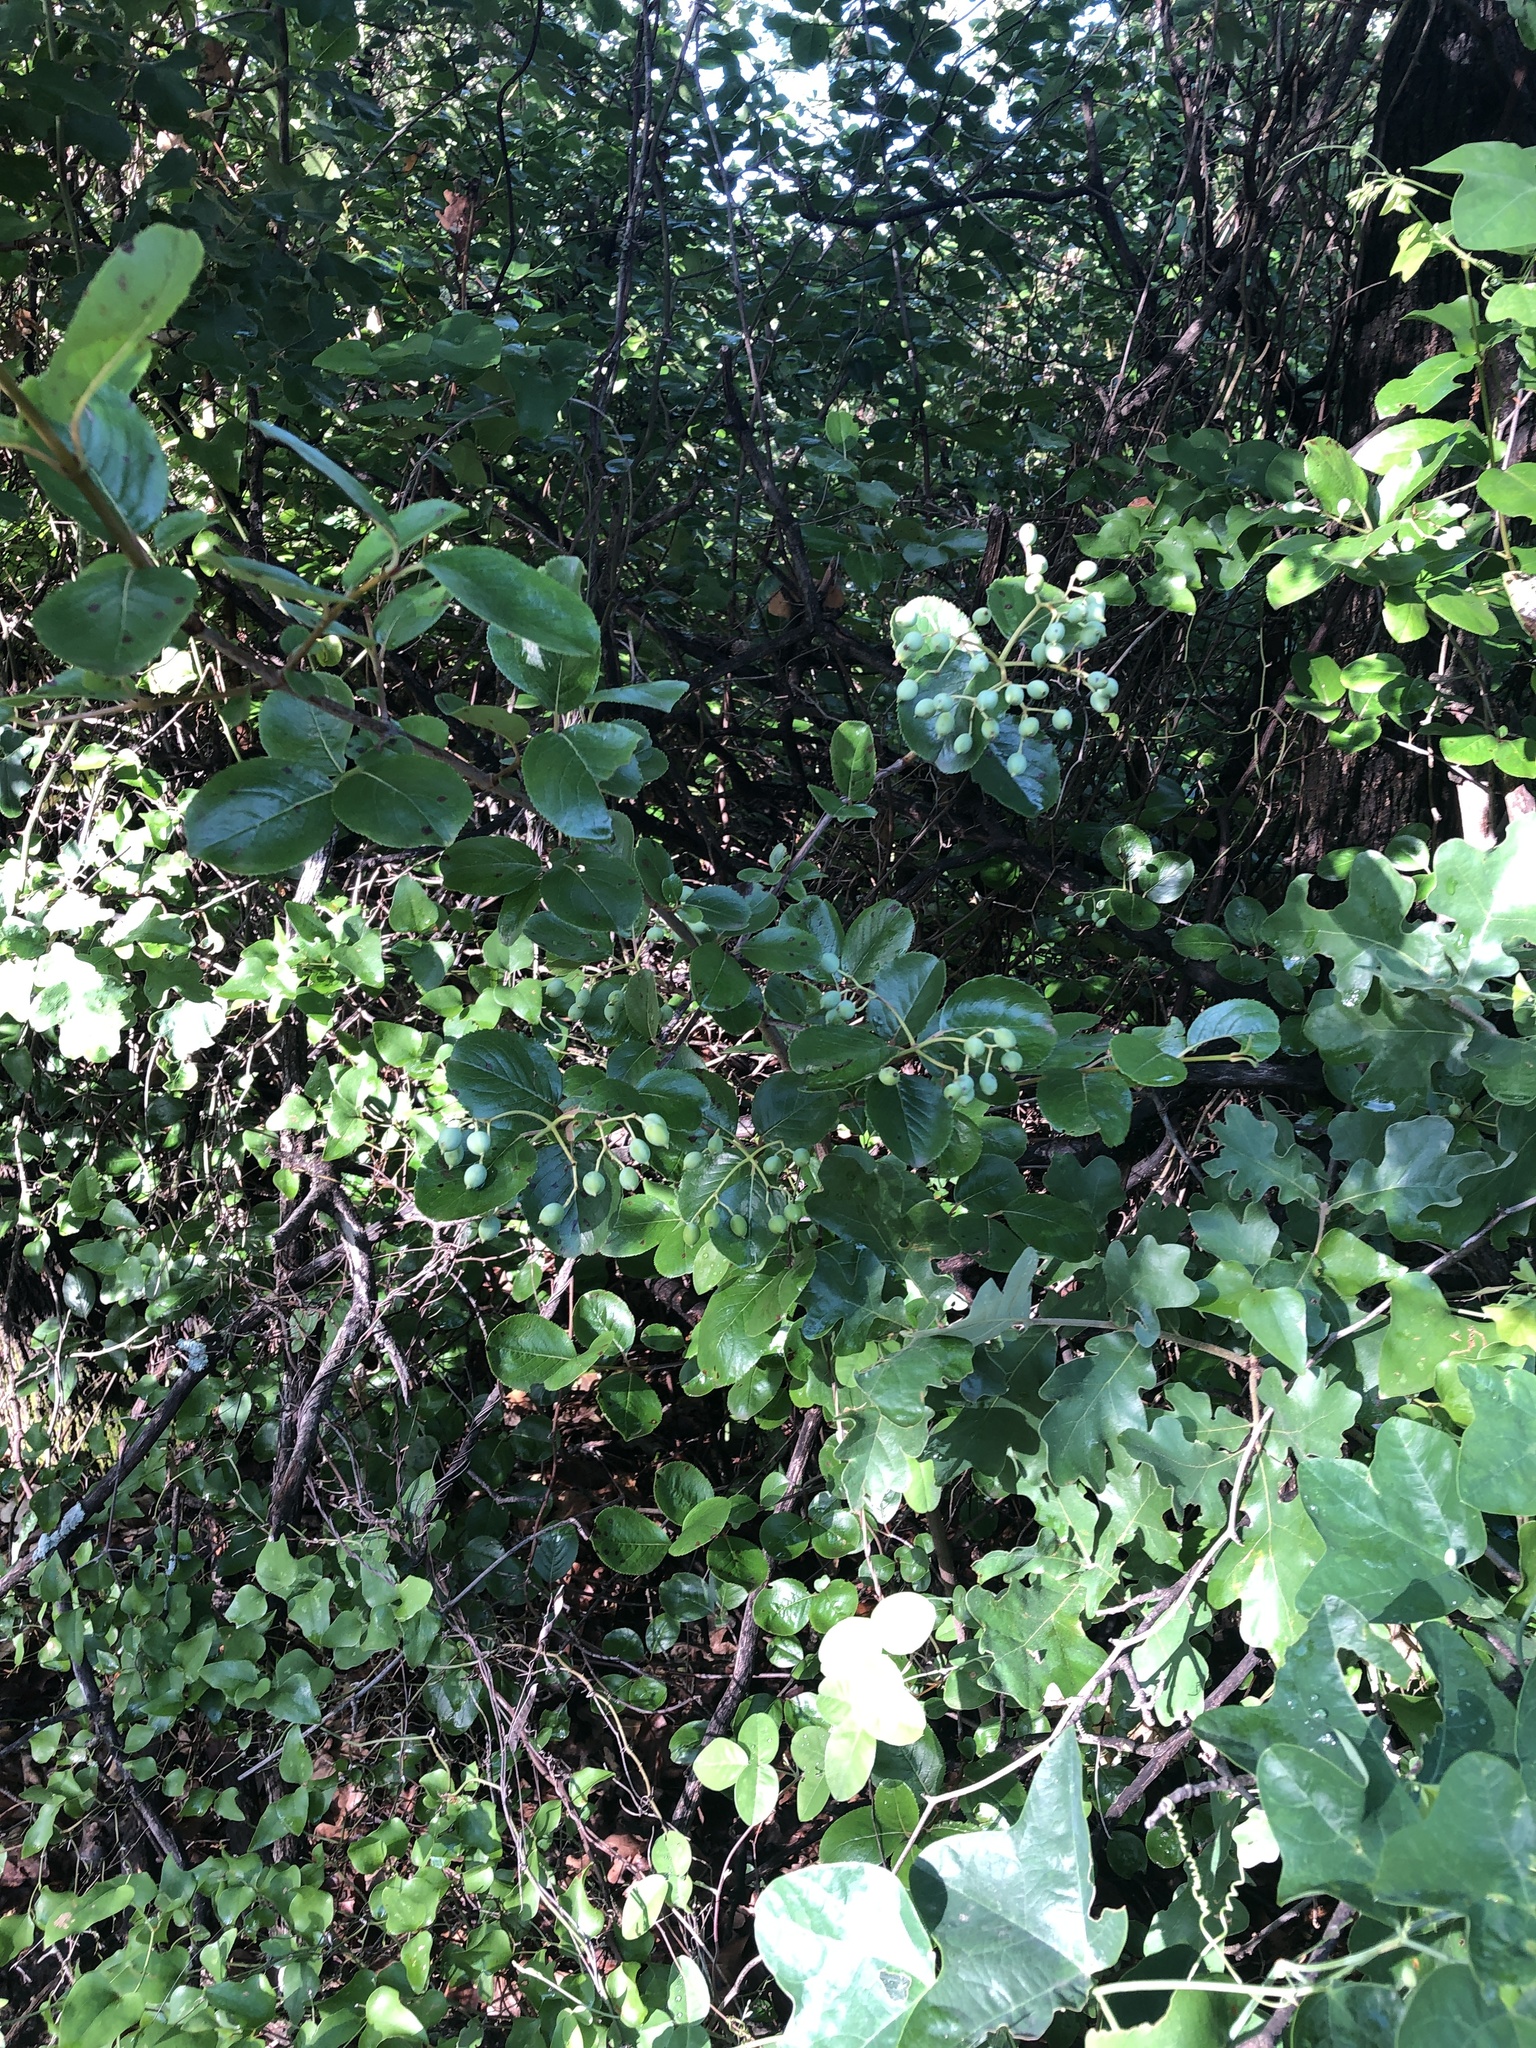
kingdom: Plantae
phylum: Tracheophyta
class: Magnoliopsida
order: Dipsacales
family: Viburnaceae
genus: Viburnum
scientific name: Viburnum rufidulum
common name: Blue haw
